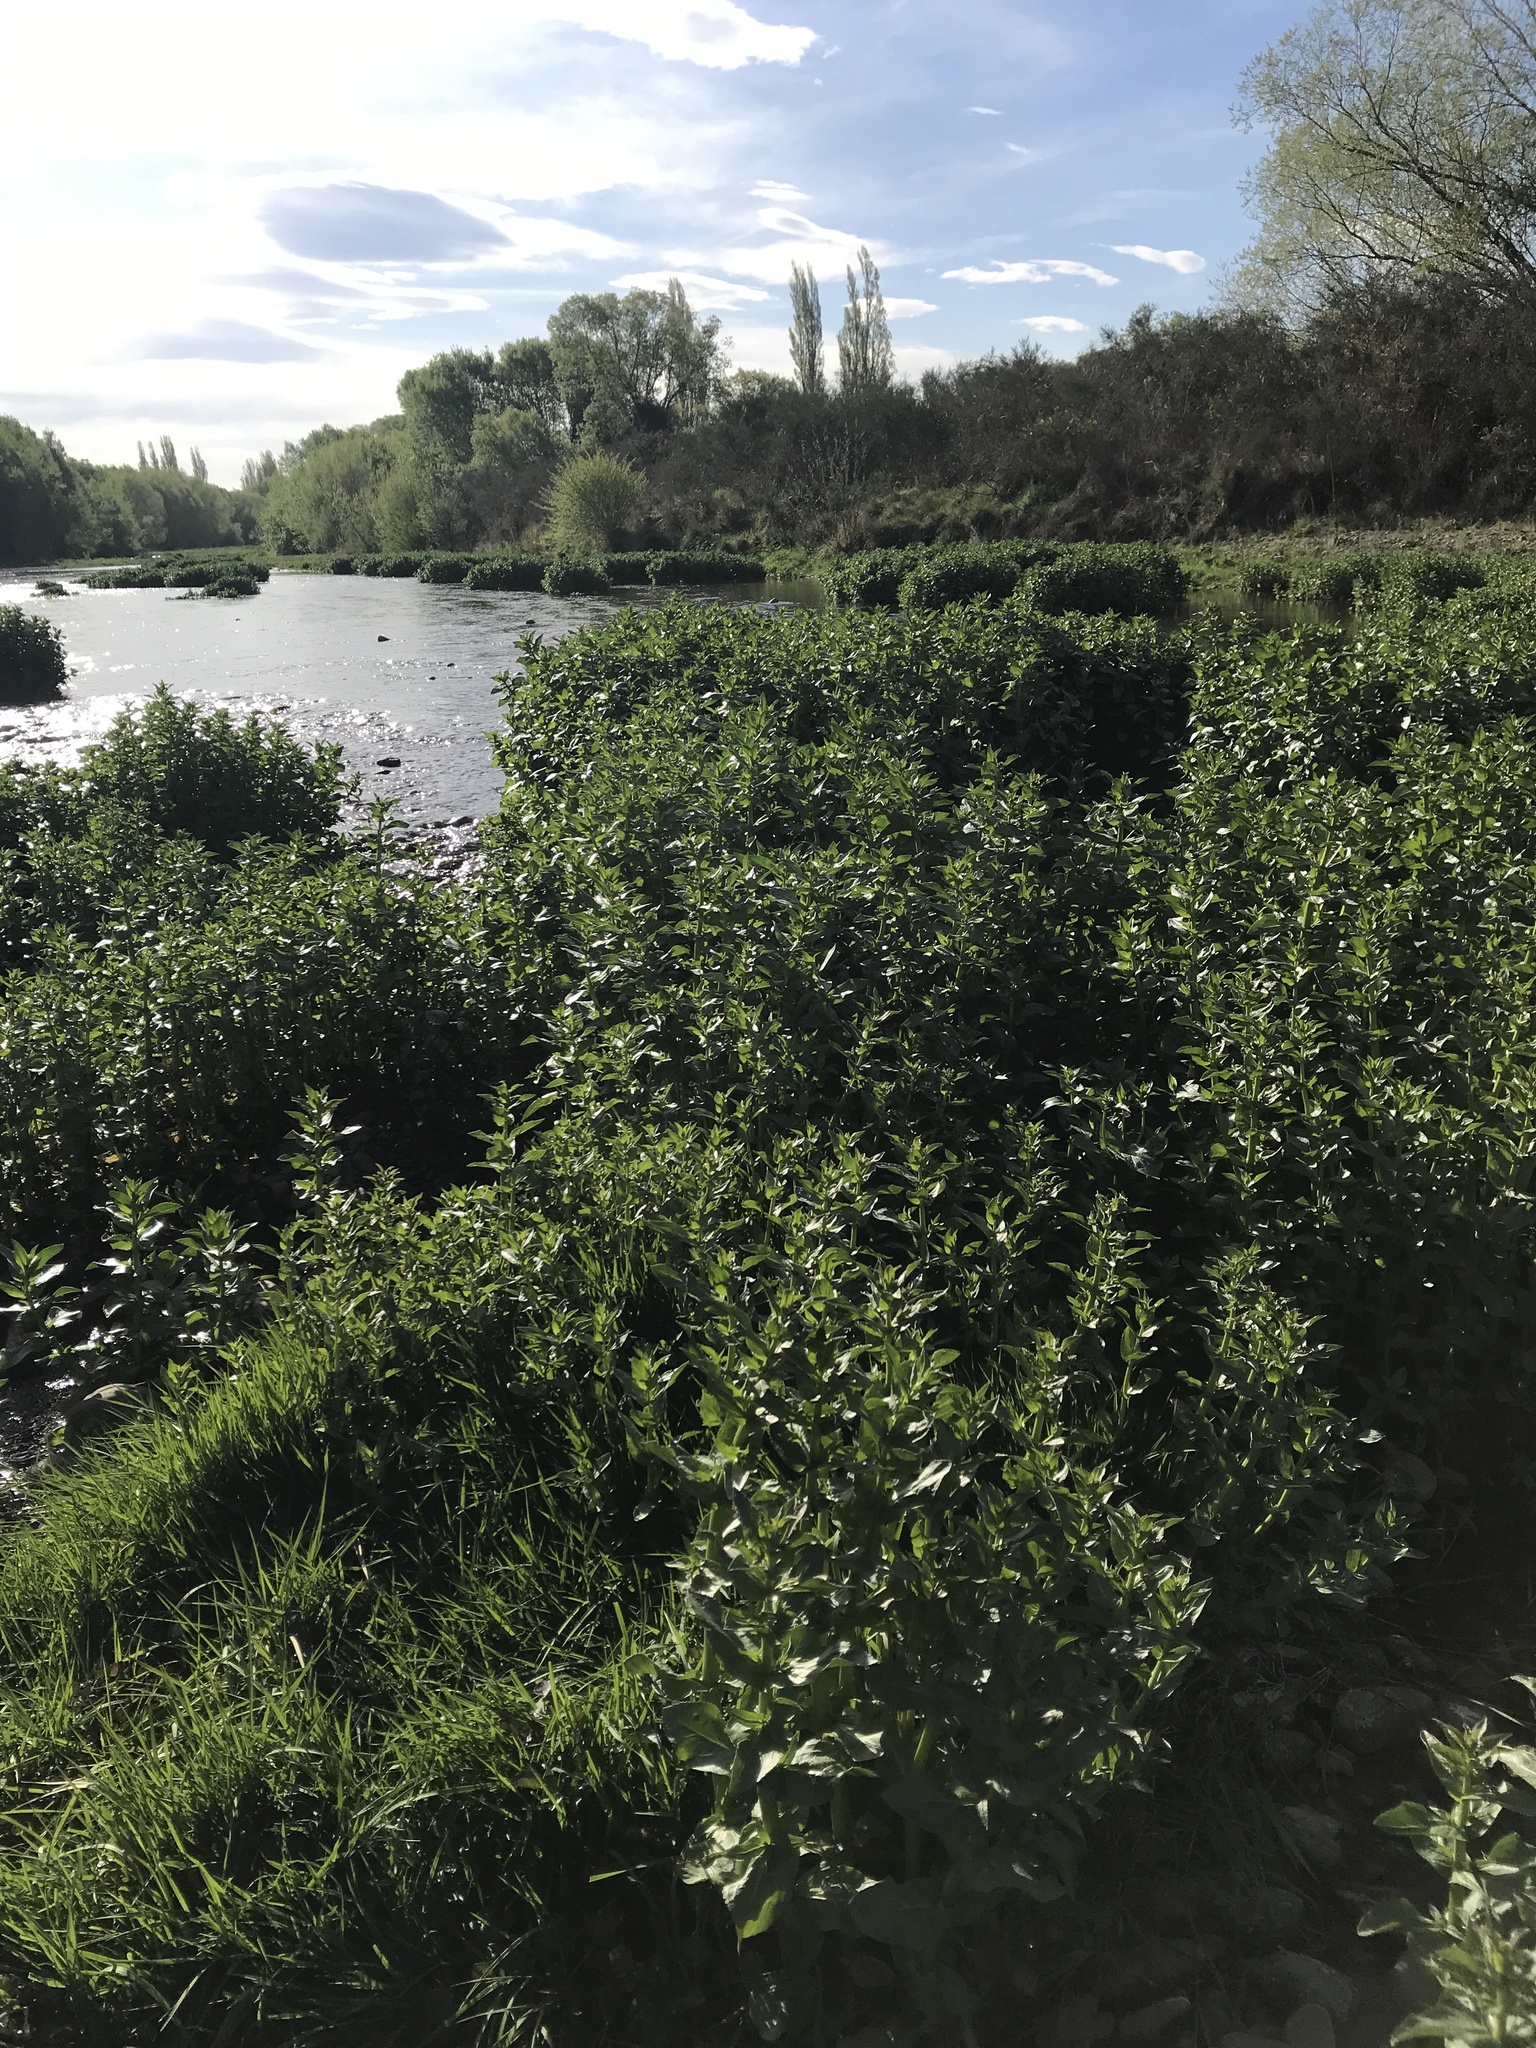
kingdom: Plantae
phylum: Tracheophyta
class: Magnoliopsida
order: Lamiales
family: Plantaginaceae
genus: Veronica
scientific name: Veronica anagallis-aquatica
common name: Water speedwell
